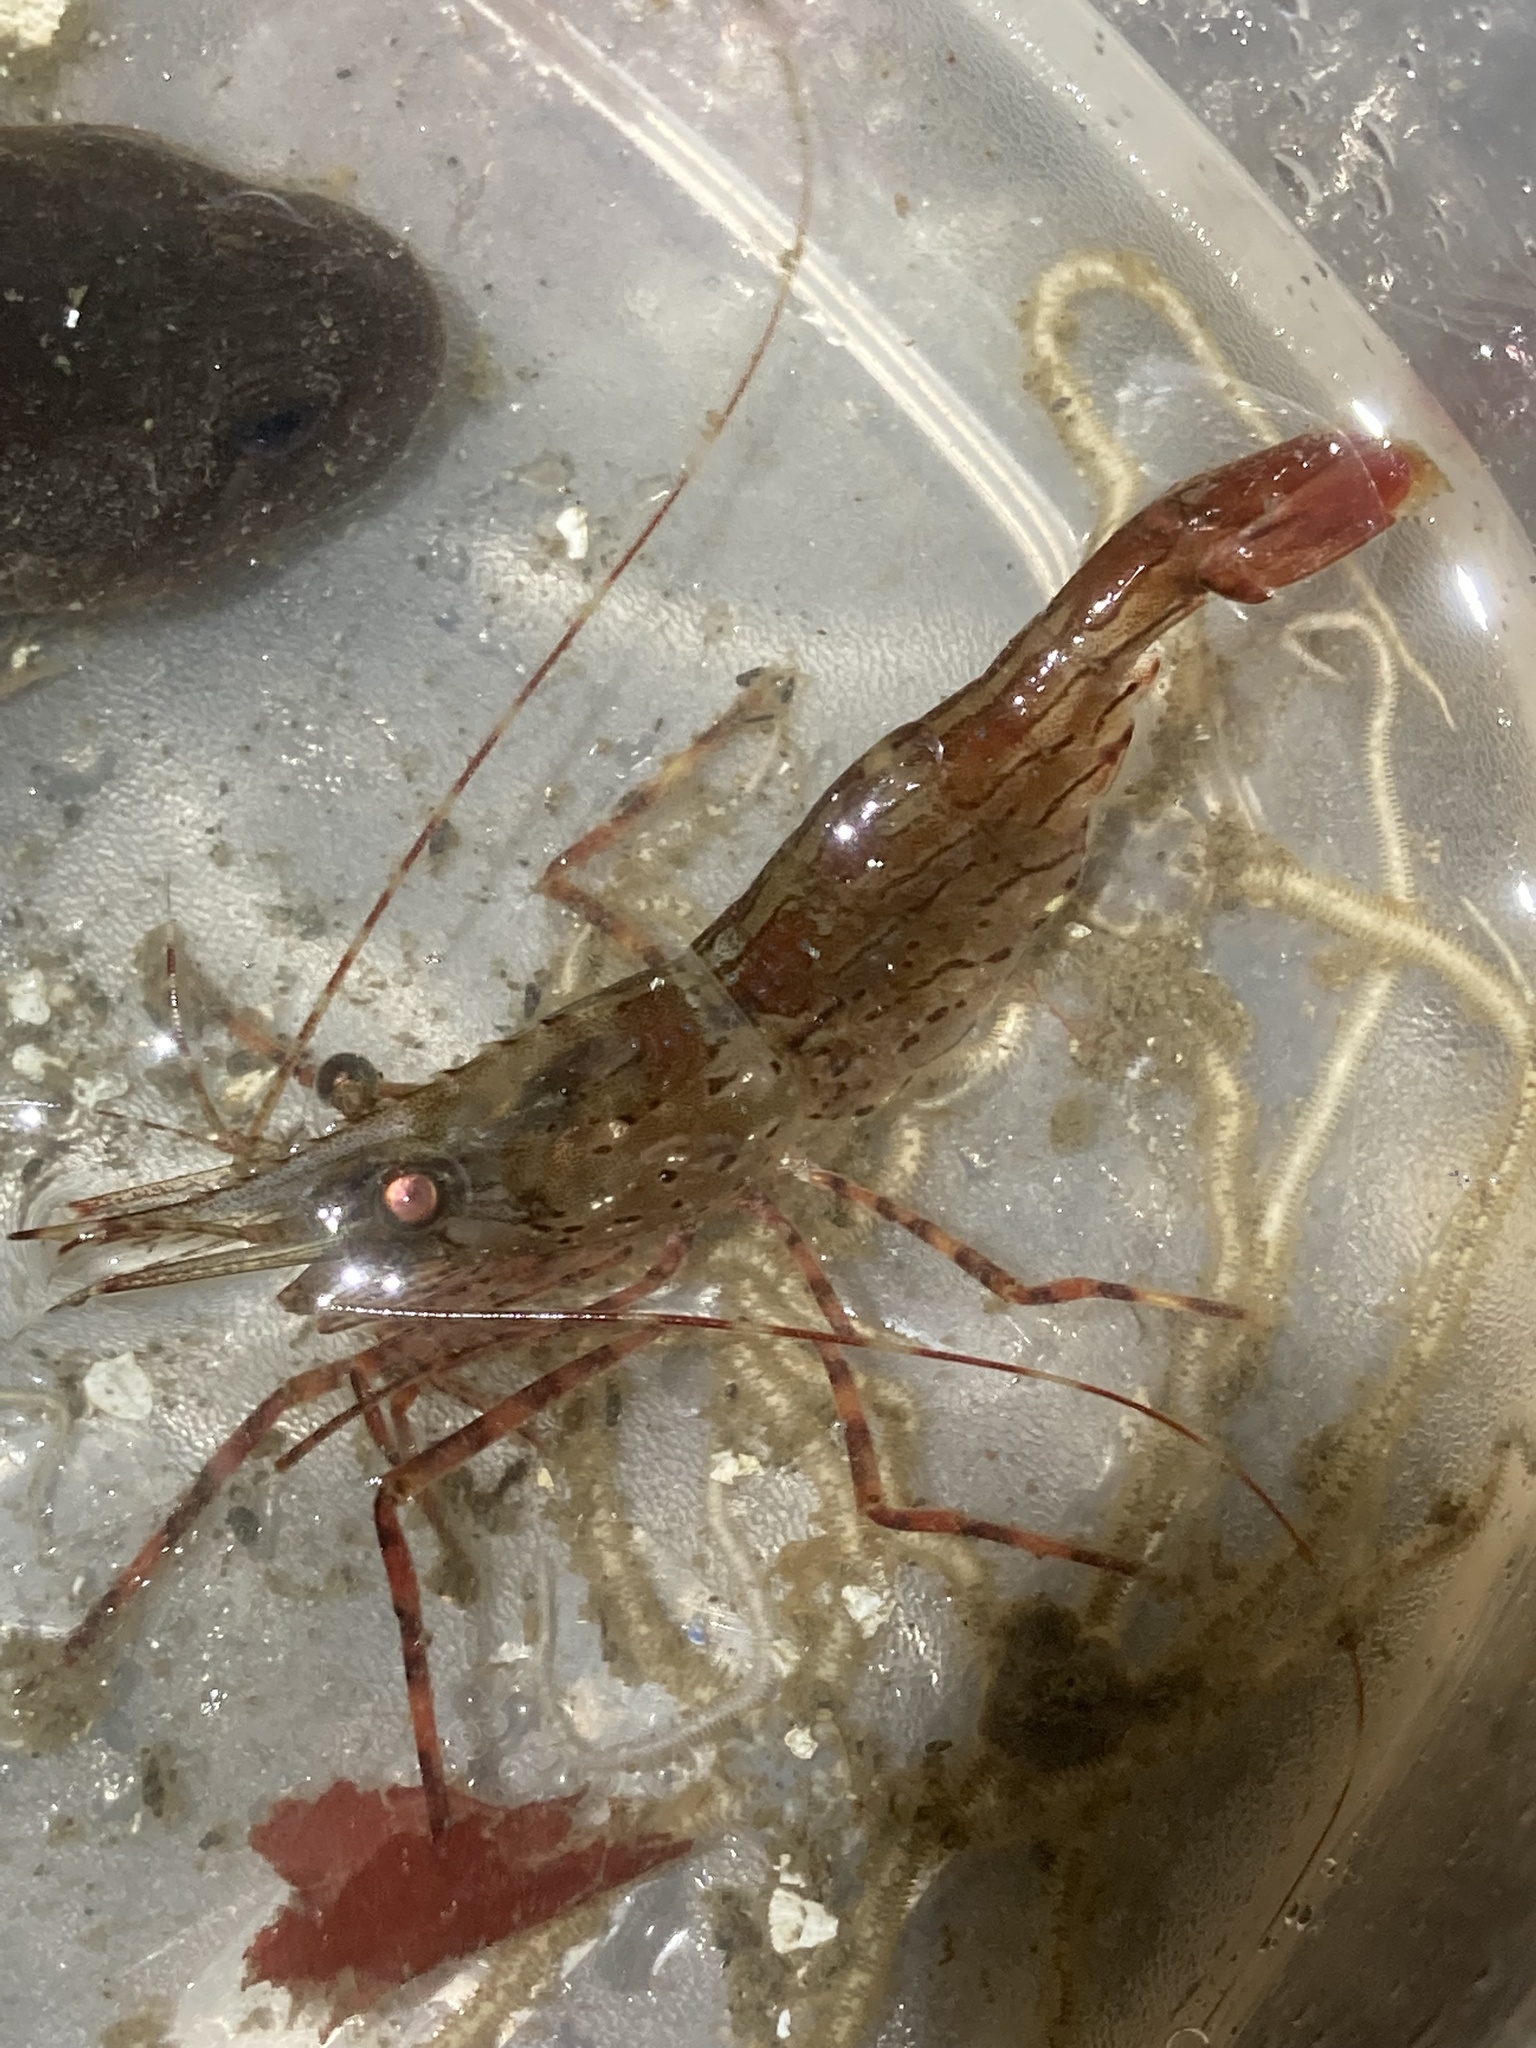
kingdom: Animalia
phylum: Arthropoda
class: Malacostraca
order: Decapoda
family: Pandalidae
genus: Pandalus
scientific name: Pandalus danae
